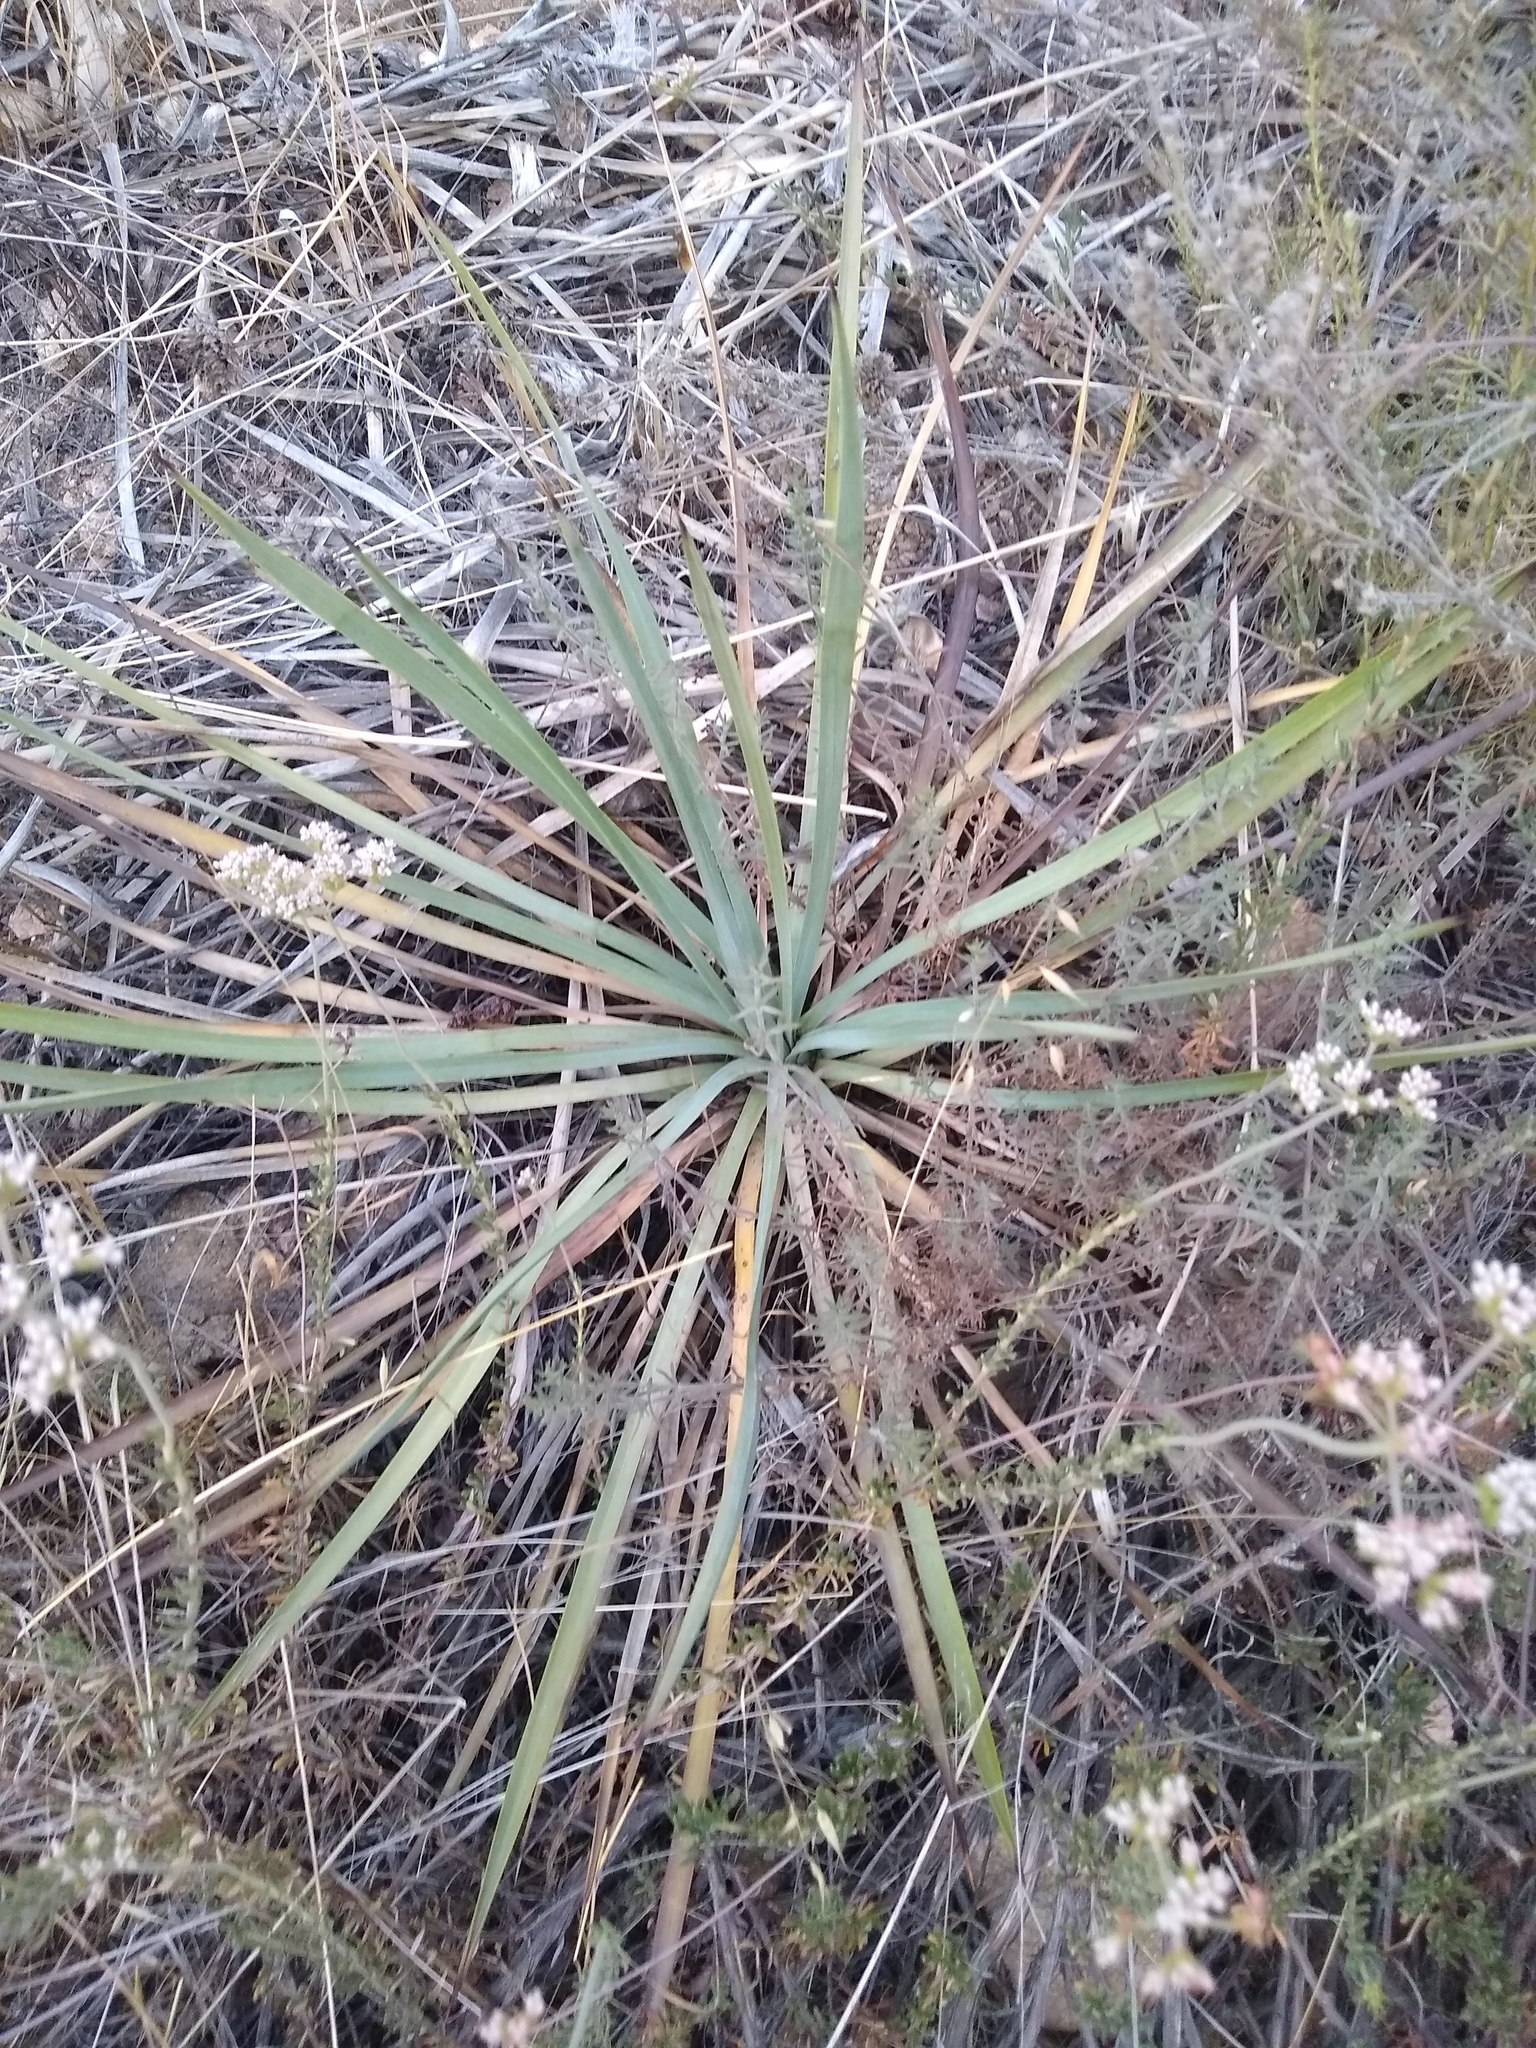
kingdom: Plantae
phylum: Tracheophyta
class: Liliopsida
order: Asparagales
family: Asparagaceae
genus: Hesperoyucca
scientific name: Hesperoyucca whipplei
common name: Our lord's-candle
